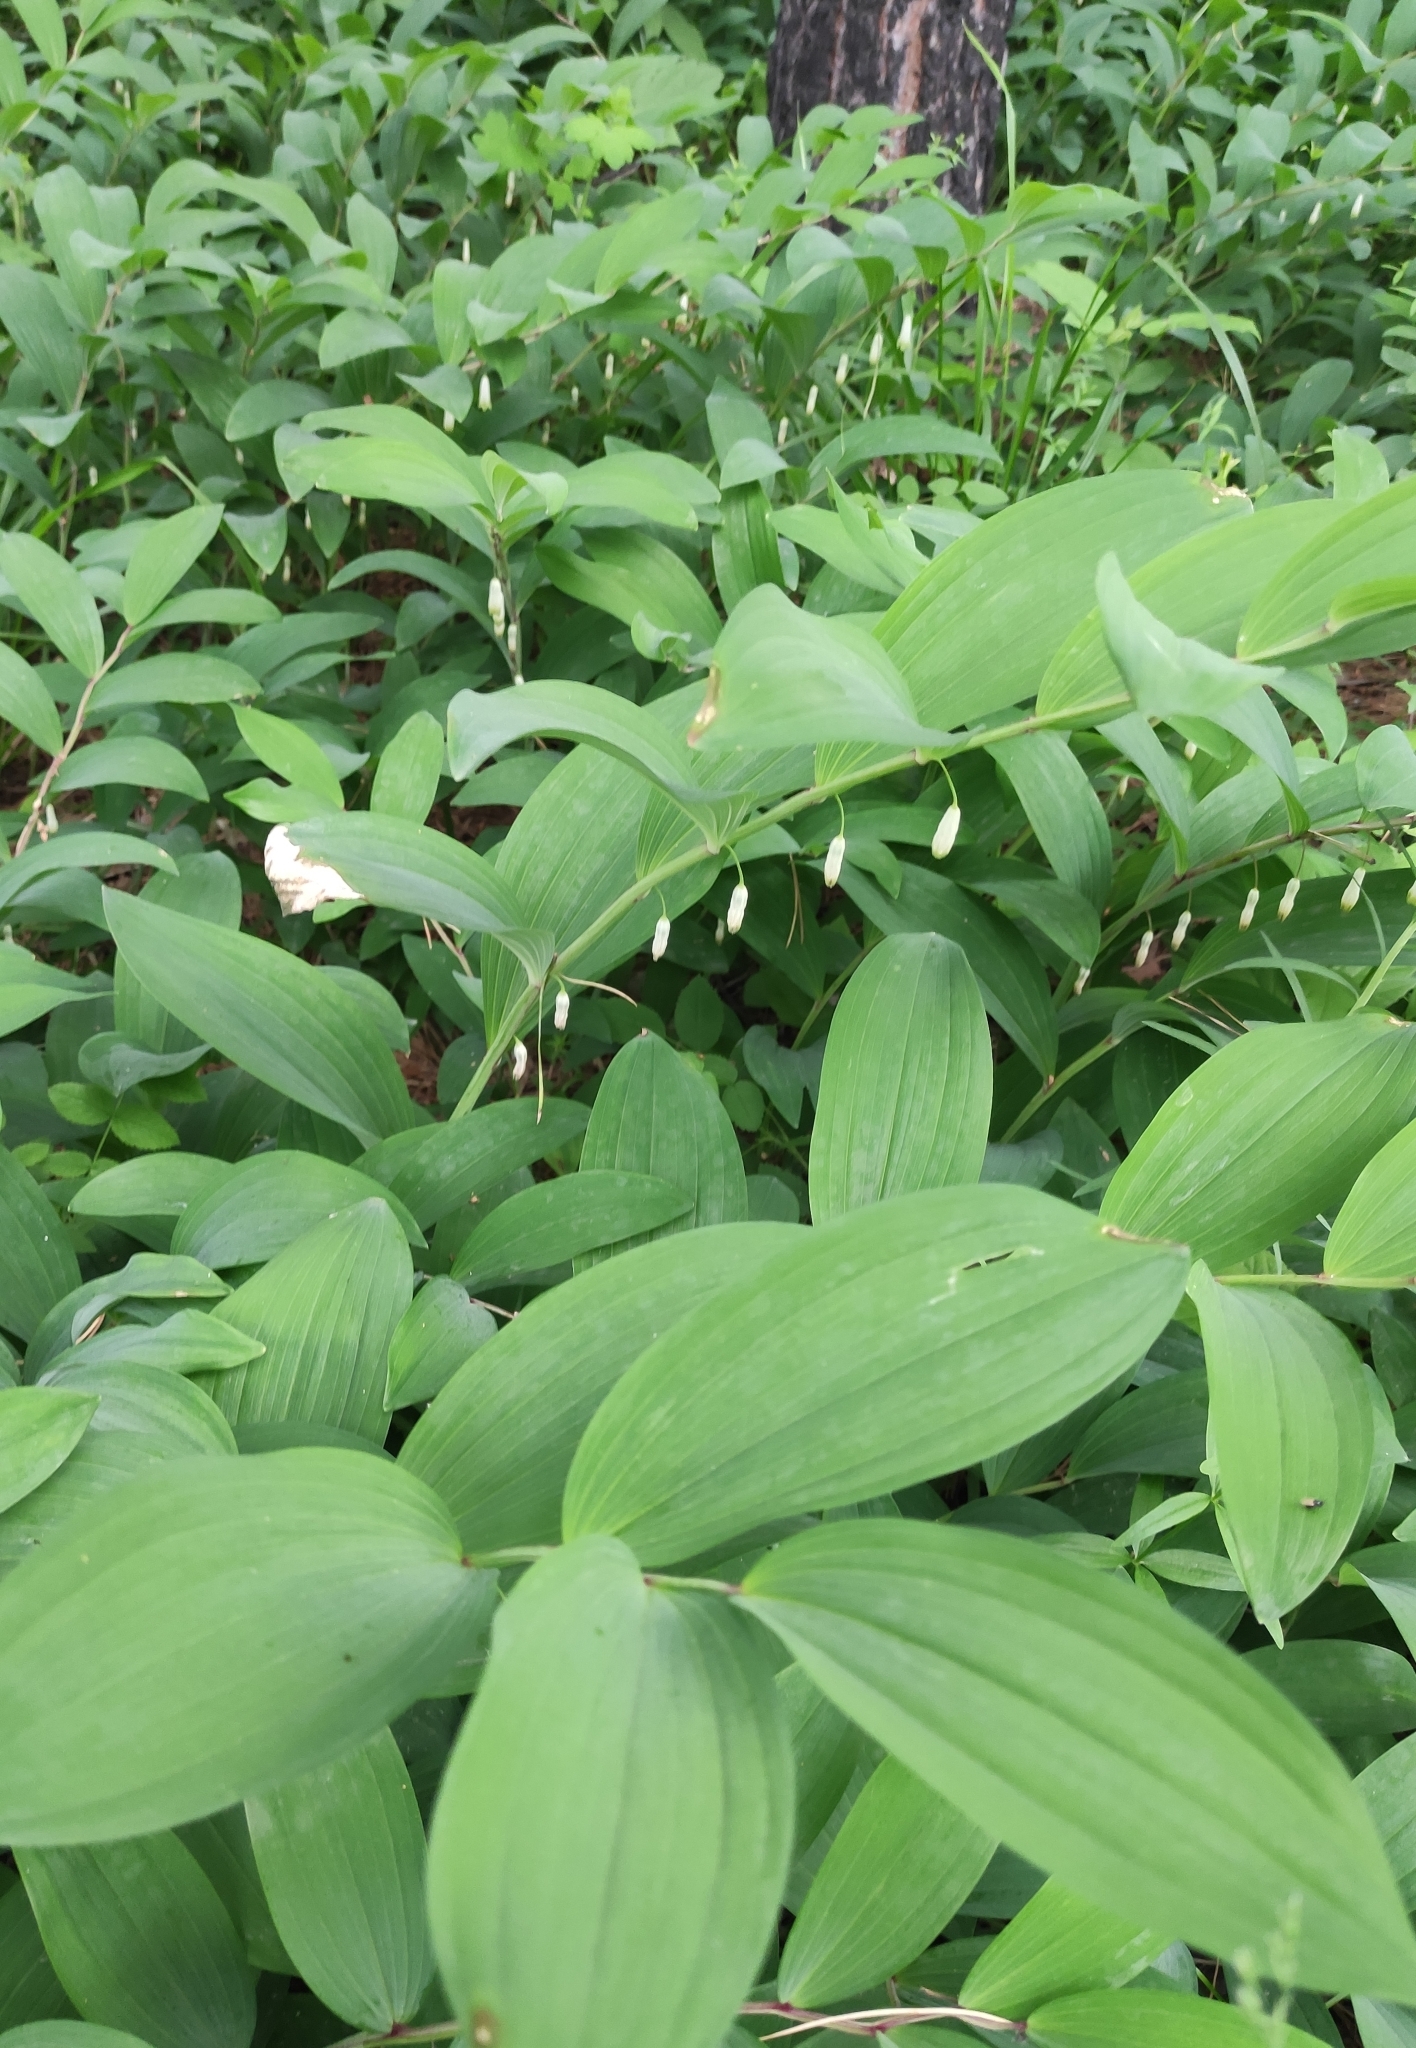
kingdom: Plantae
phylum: Tracheophyta
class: Liliopsida
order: Asparagales
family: Asparagaceae
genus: Polygonatum
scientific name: Polygonatum odoratum
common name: Angular solomon's-seal
